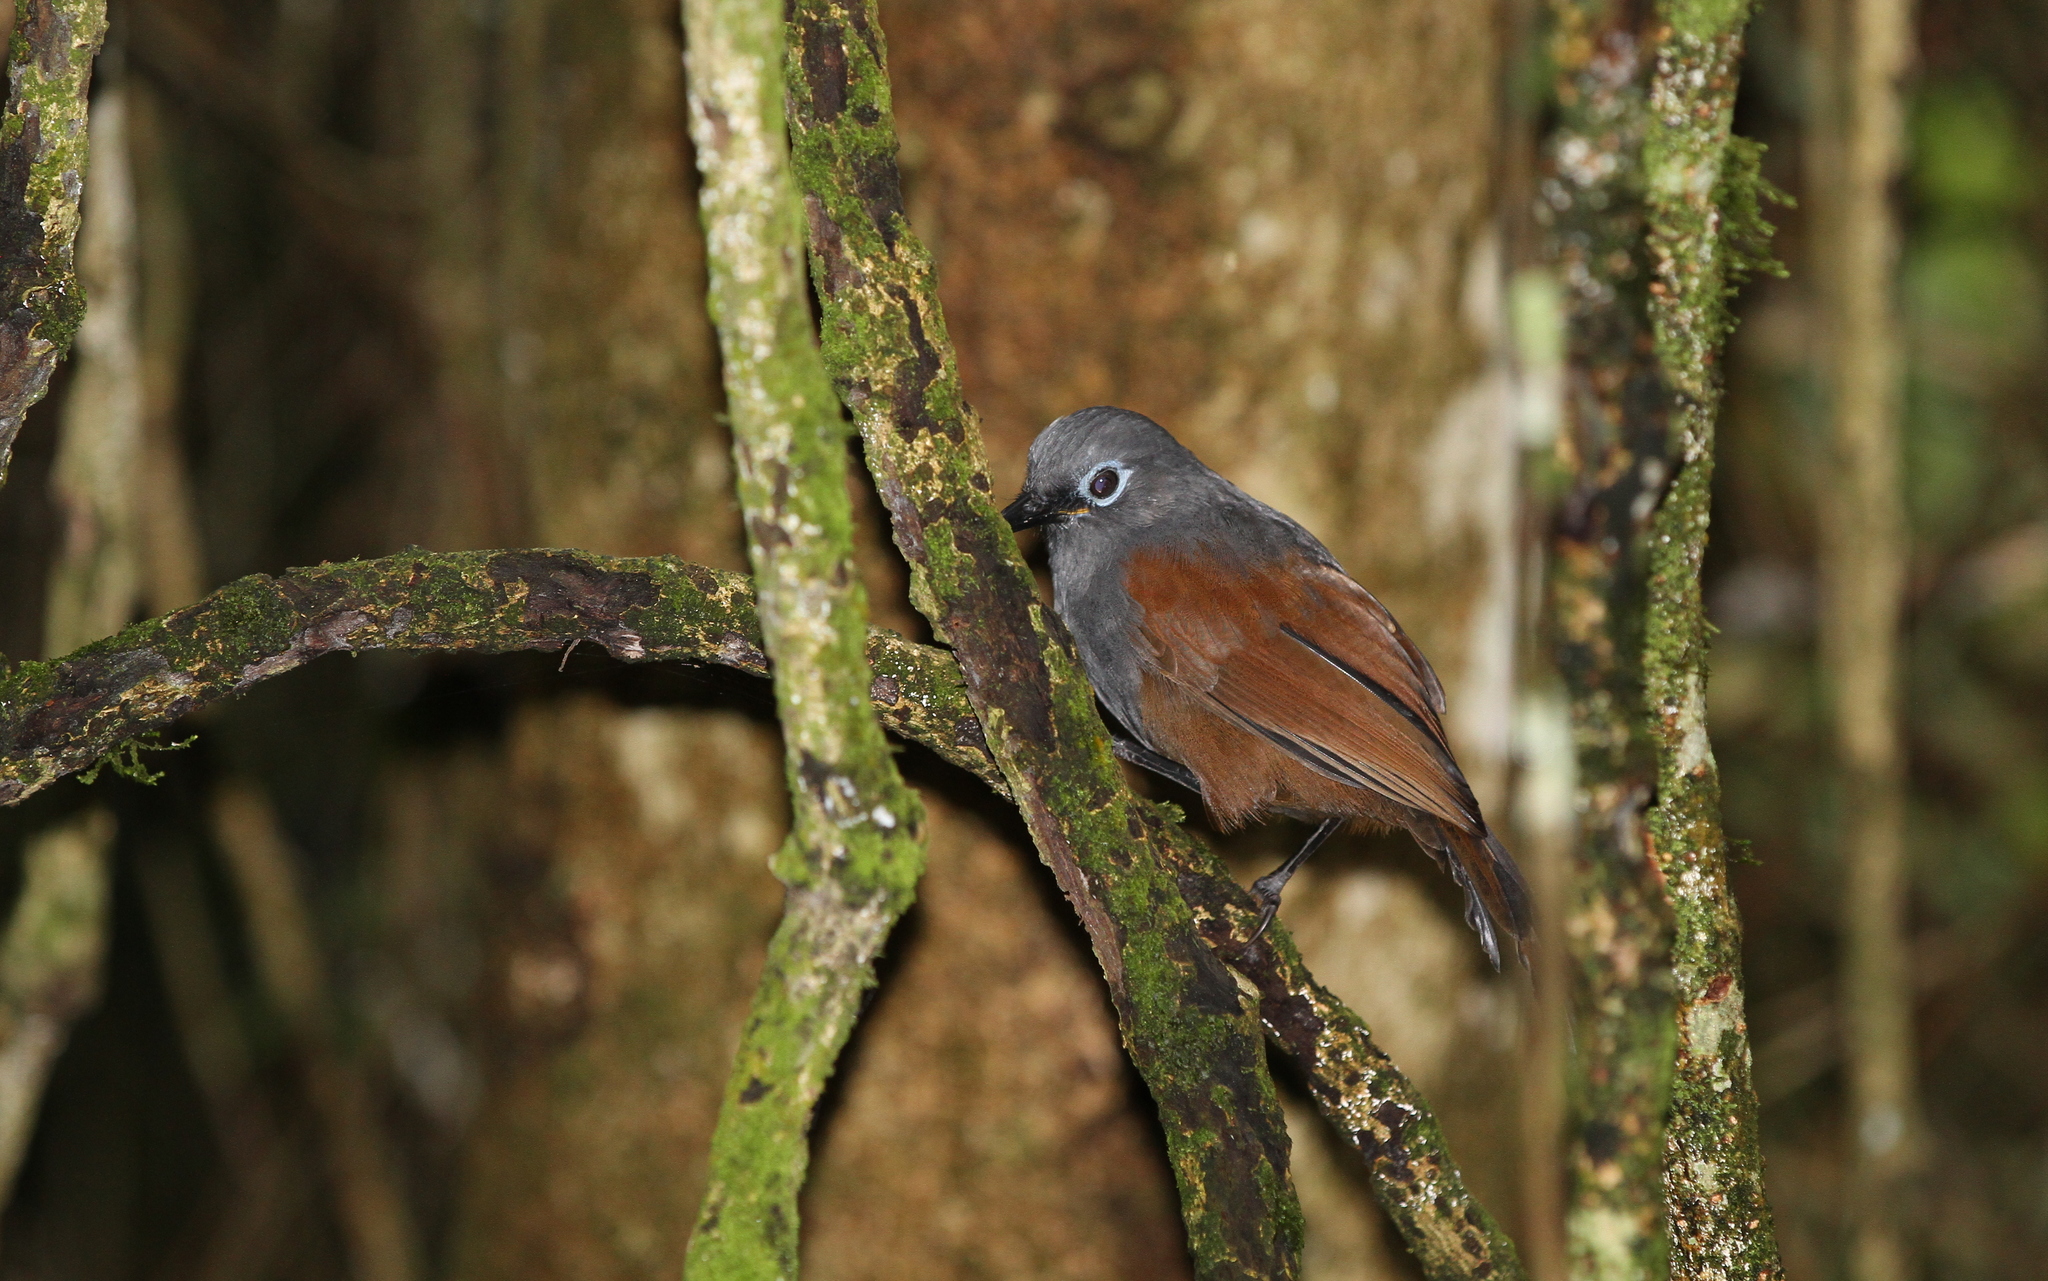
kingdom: Animalia
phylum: Chordata
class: Aves
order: Passeriformes
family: Leiothrichidae
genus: Garrulax
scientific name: Garrulax palliatus
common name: Sunda laughingthrush
